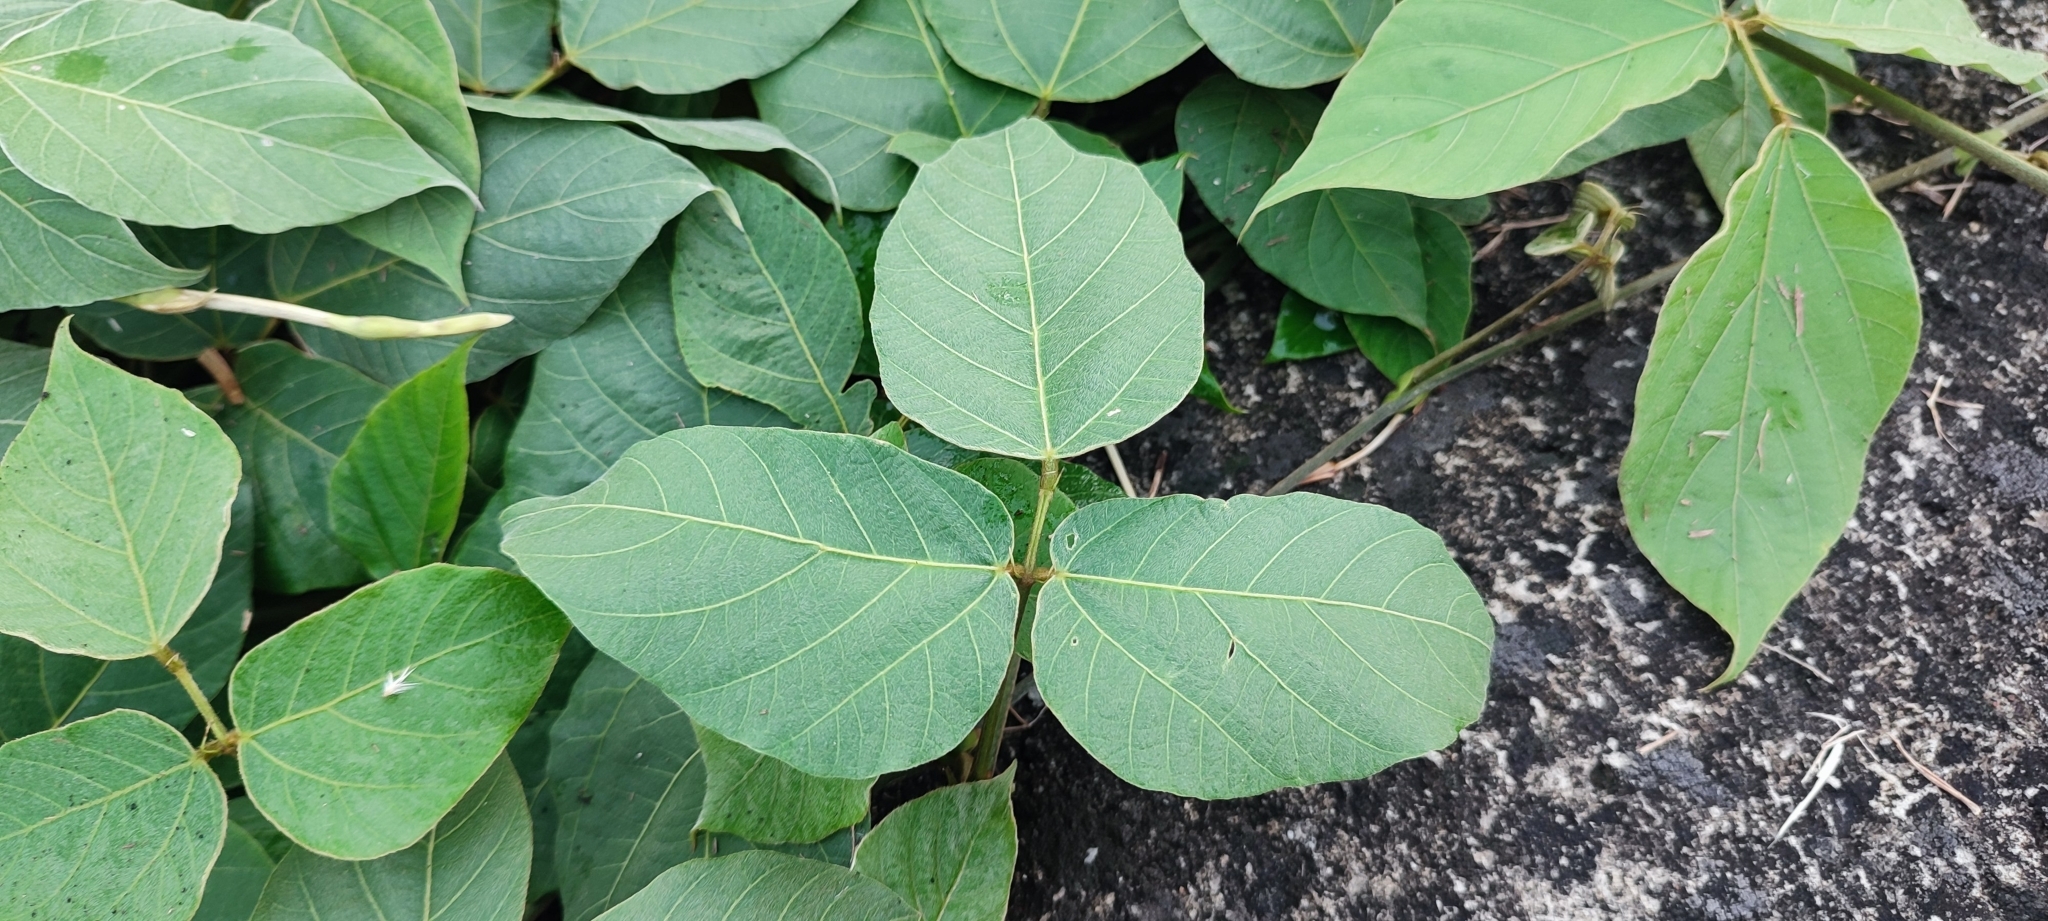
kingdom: Plantae
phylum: Tracheophyta
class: Magnoliopsida
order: Fabales
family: Fabaceae
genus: Pueraria
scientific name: Pueraria montana
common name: Kudzu
